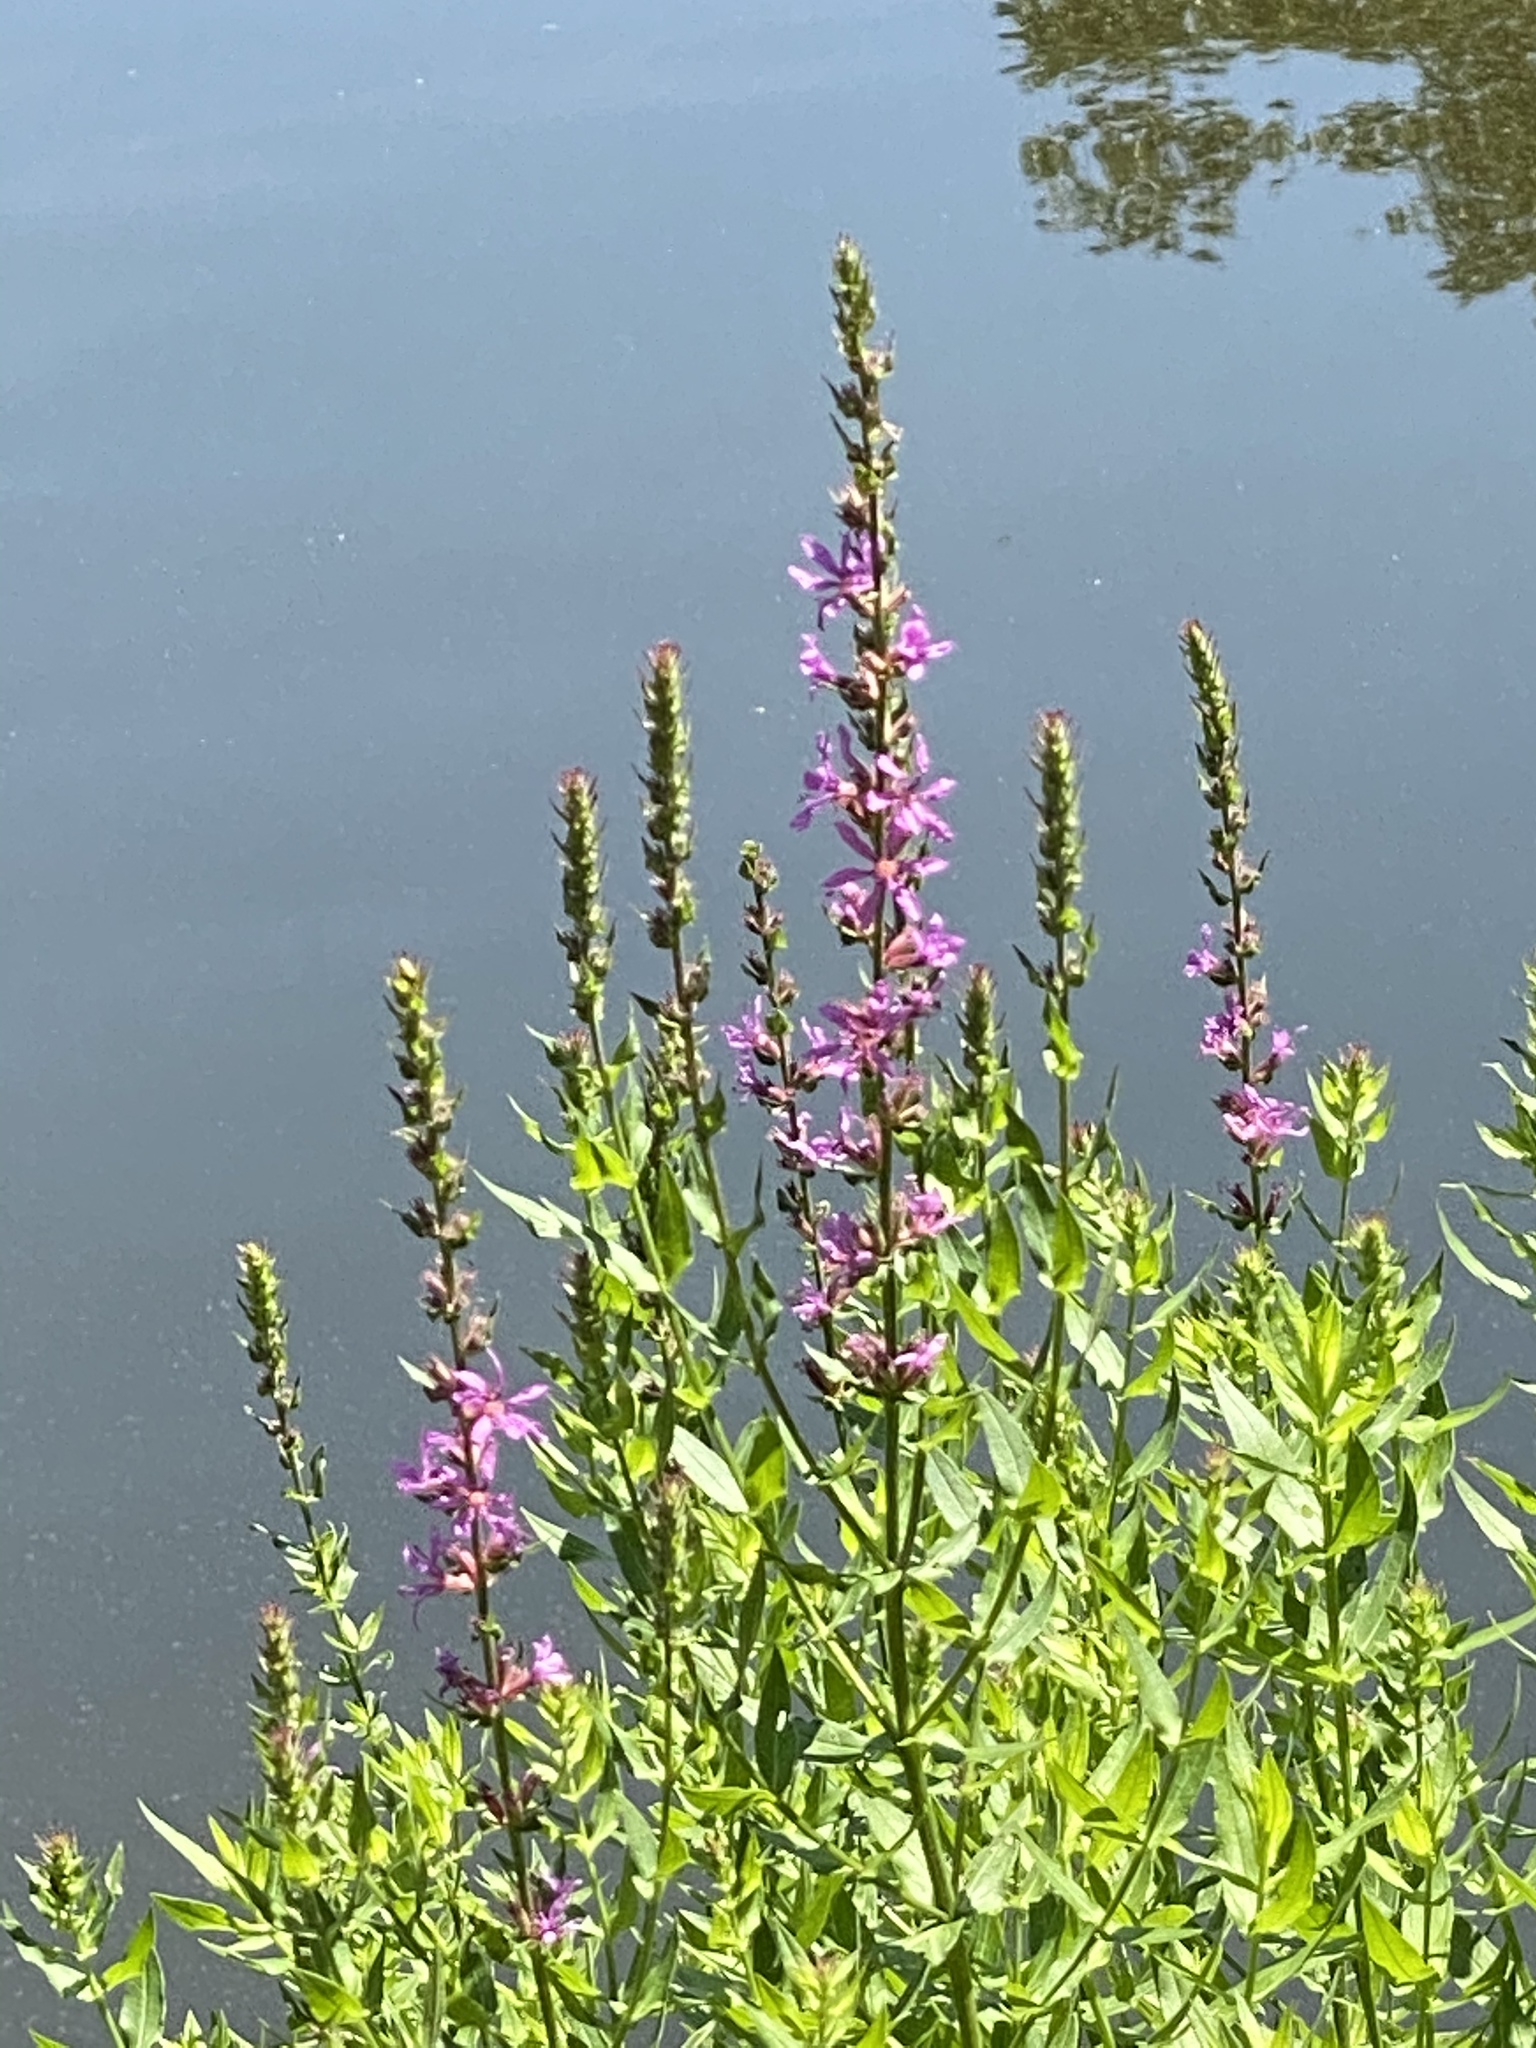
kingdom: Plantae
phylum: Tracheophyta
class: Magnoliopsida
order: Myrtales
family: Lythraceae
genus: Lythrum
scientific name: Lythrum salicaria
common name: Purple loosestrife
